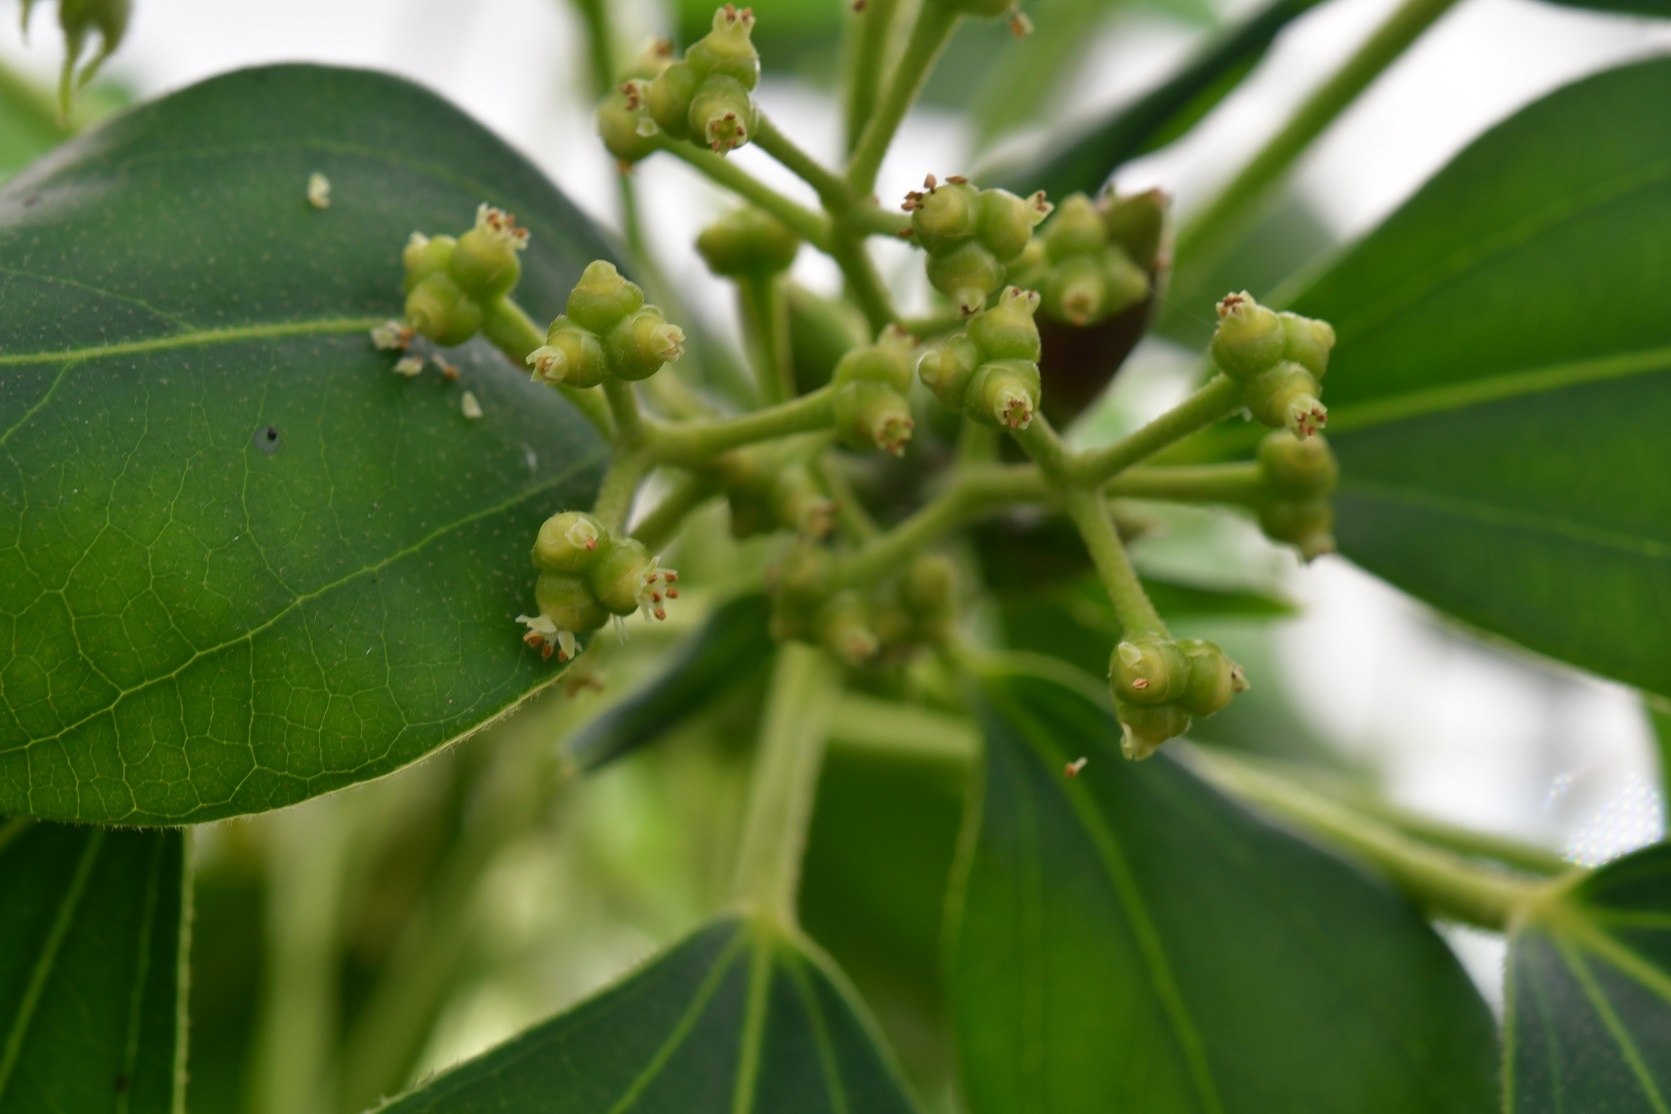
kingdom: Plantae
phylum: Tracheophyta
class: Magnoliopsida
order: Apiales
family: Araliaceae
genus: Oreopanax
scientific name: Oreopanax arcanus
